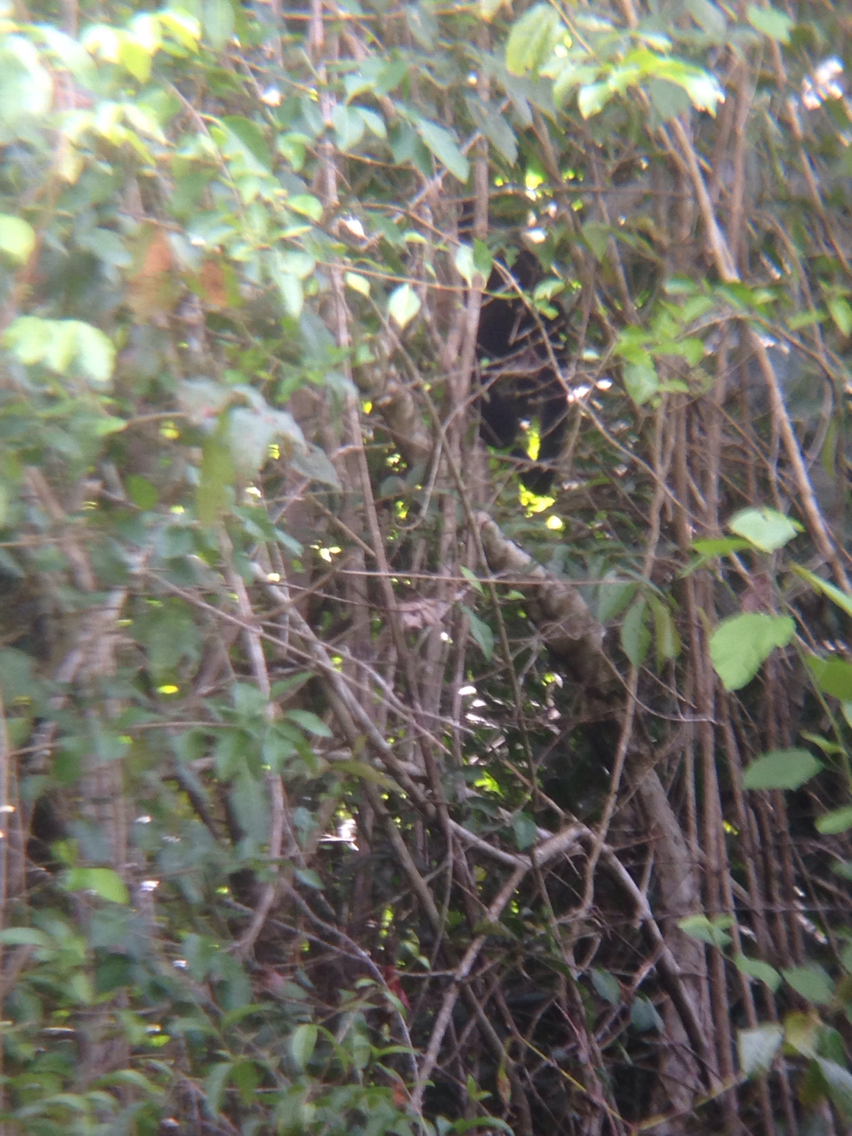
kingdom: Animalia
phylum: Chordata
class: Mammalia
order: Primates
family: Atelidae
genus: Alouatta
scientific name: Alouatta palliata
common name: Mantled howler
